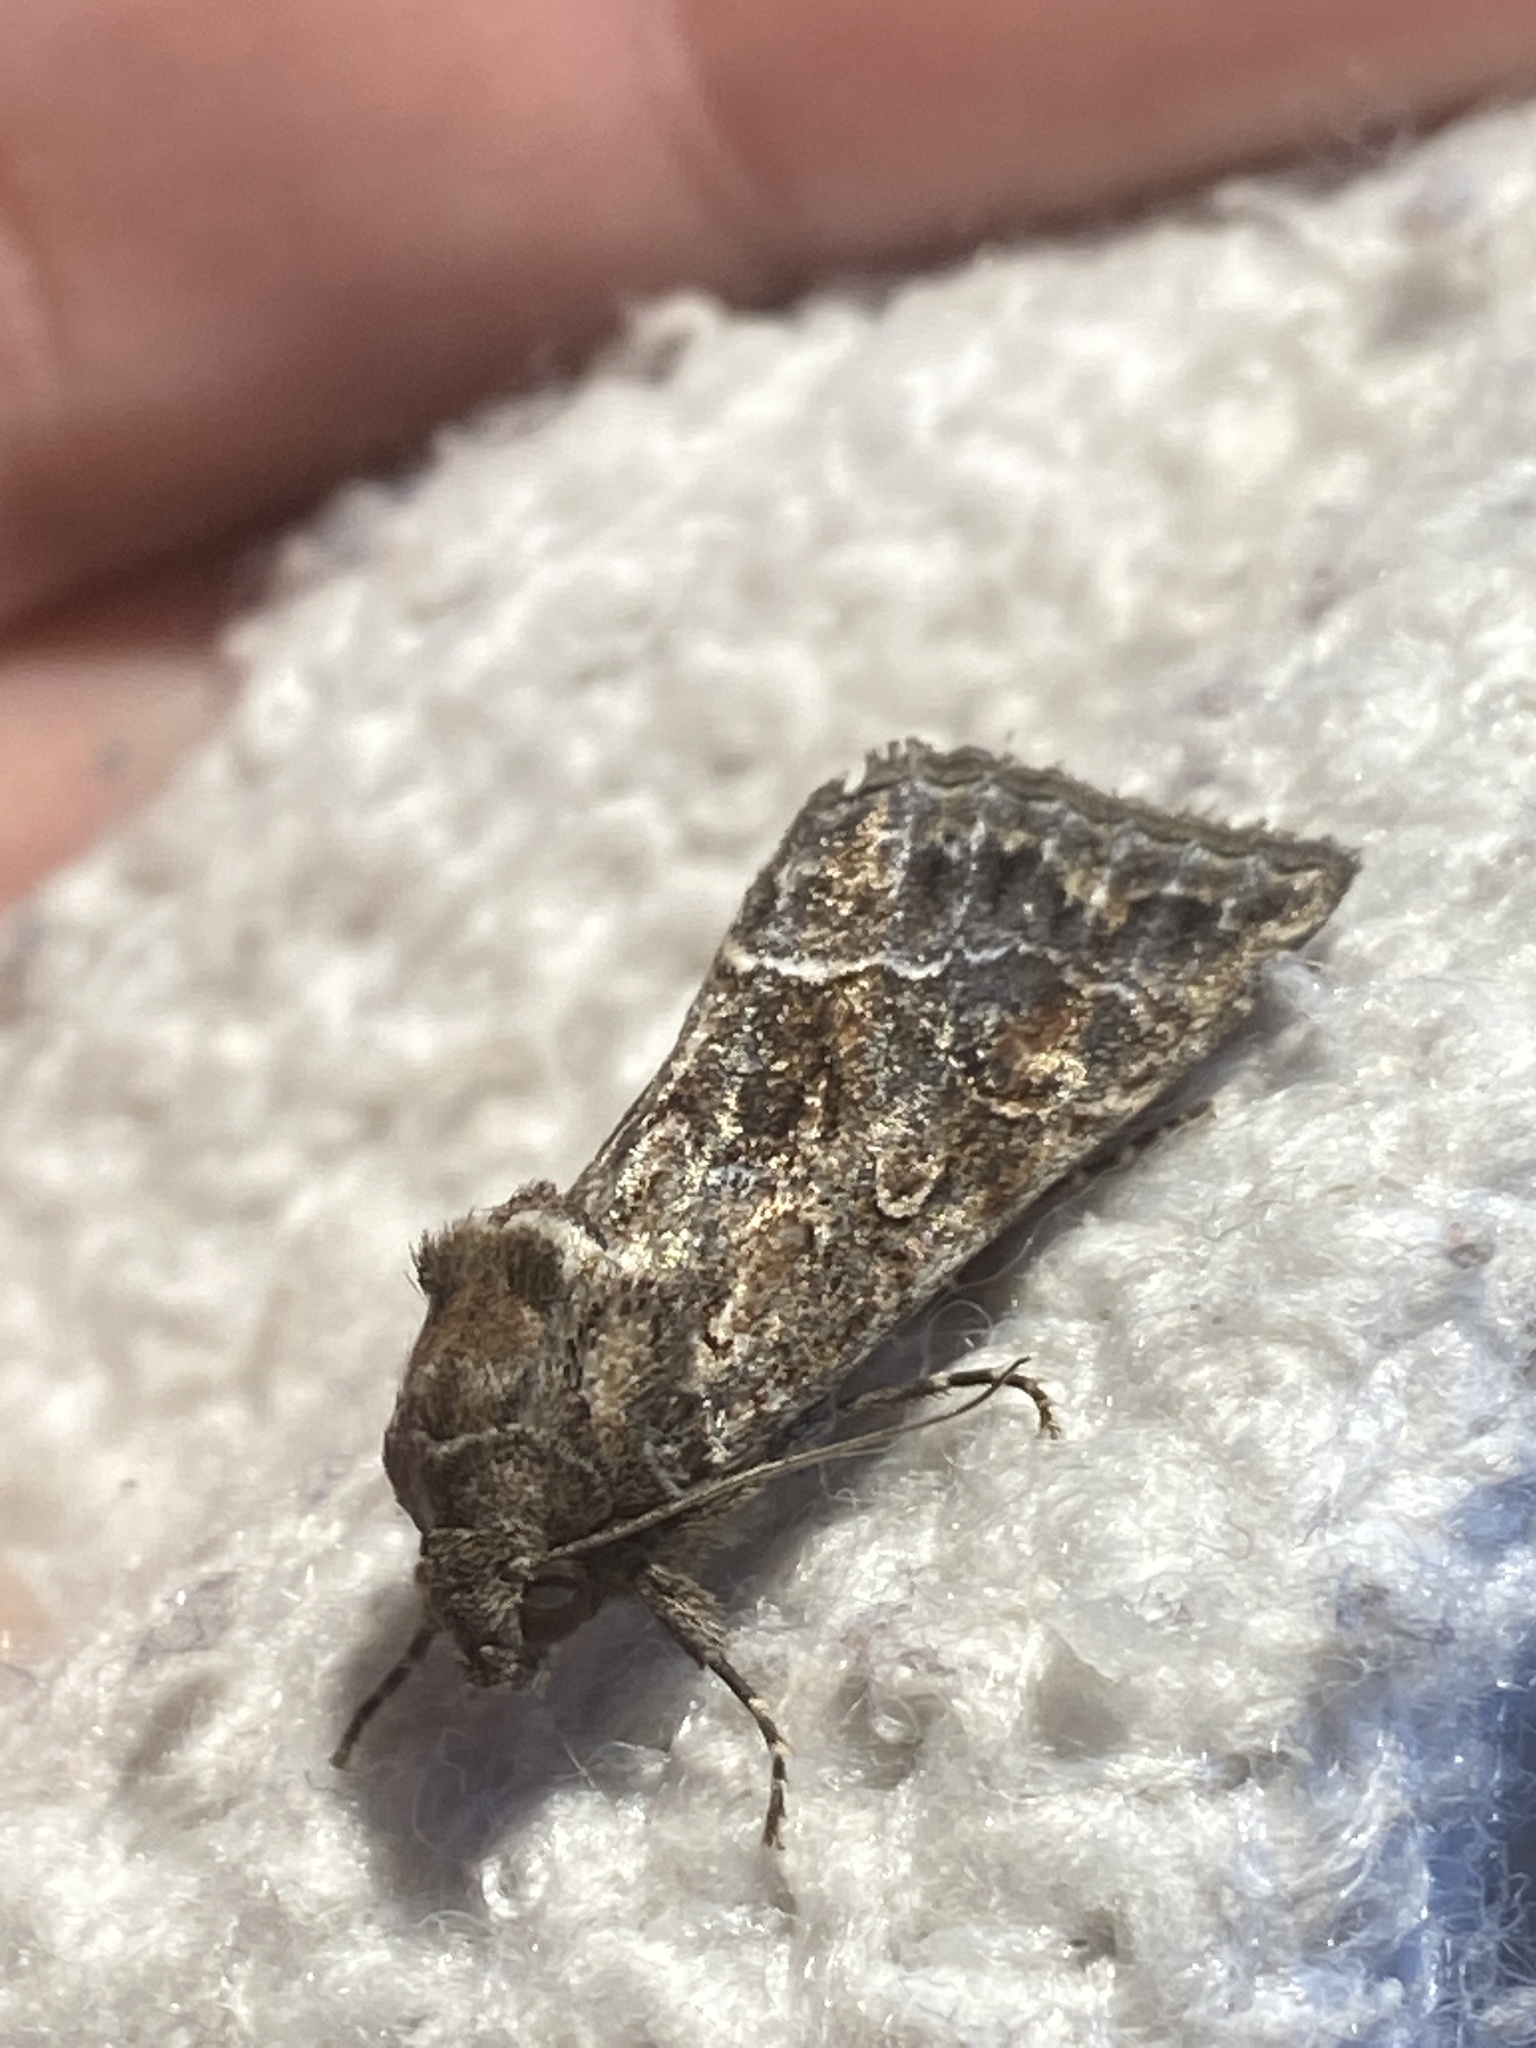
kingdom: Animalia
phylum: Arthropoda
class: Insecta
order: Lepidoptera
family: Noctuidae
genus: Thalpophila
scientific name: Thalpophila matura
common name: Straw underwing
